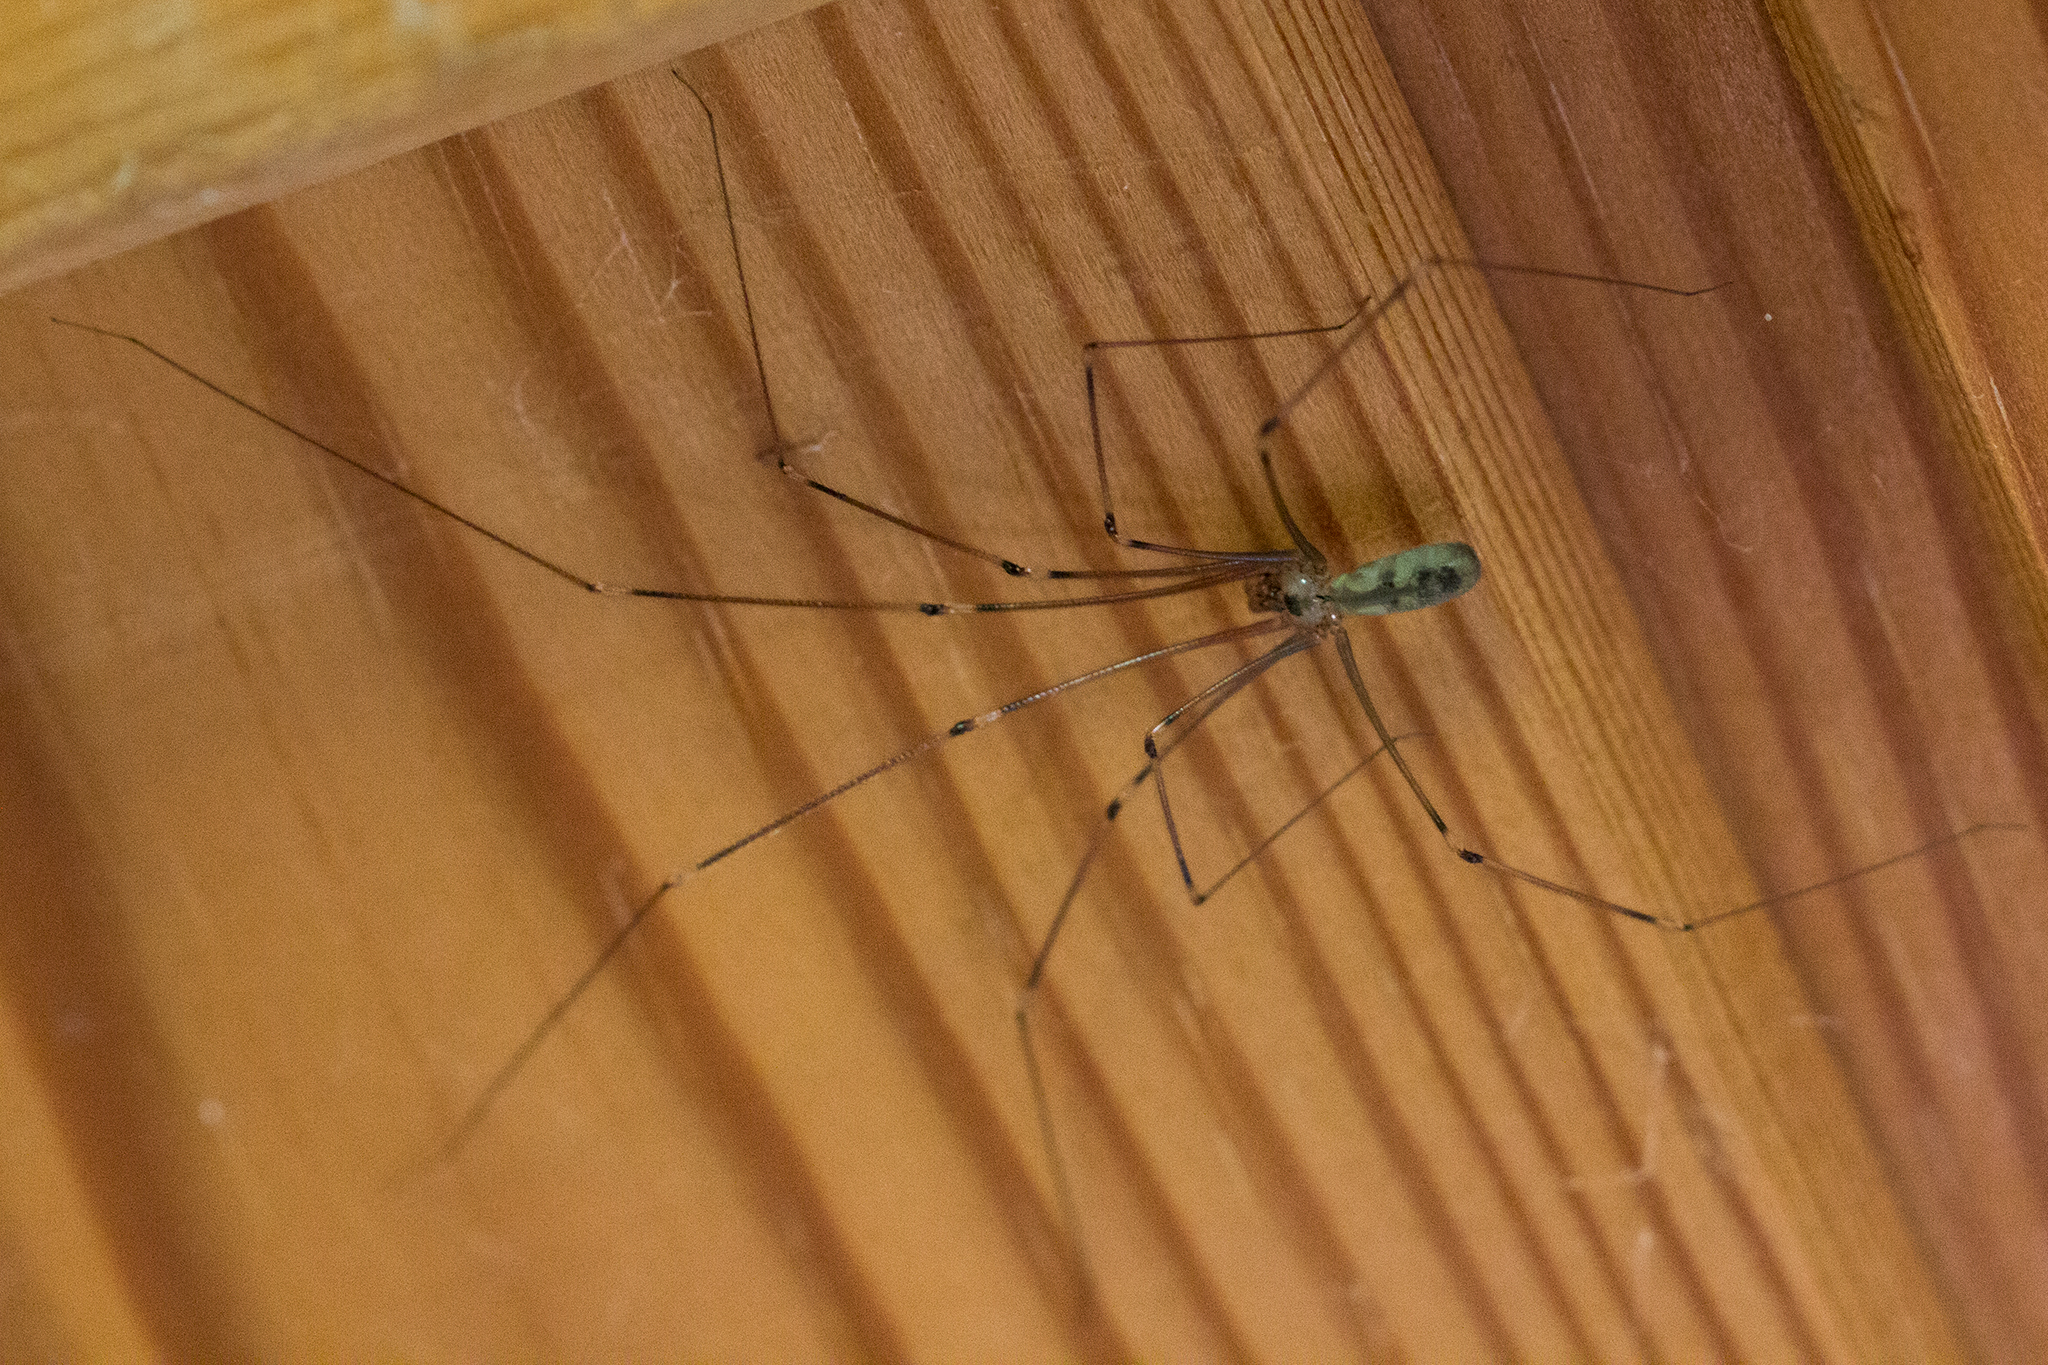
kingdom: Animalia
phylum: Arthropoda
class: Arachnida
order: Araneae
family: Pholcidae
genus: Pholcus
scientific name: Pholcus phalangioides
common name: Longbodied cellar spider
